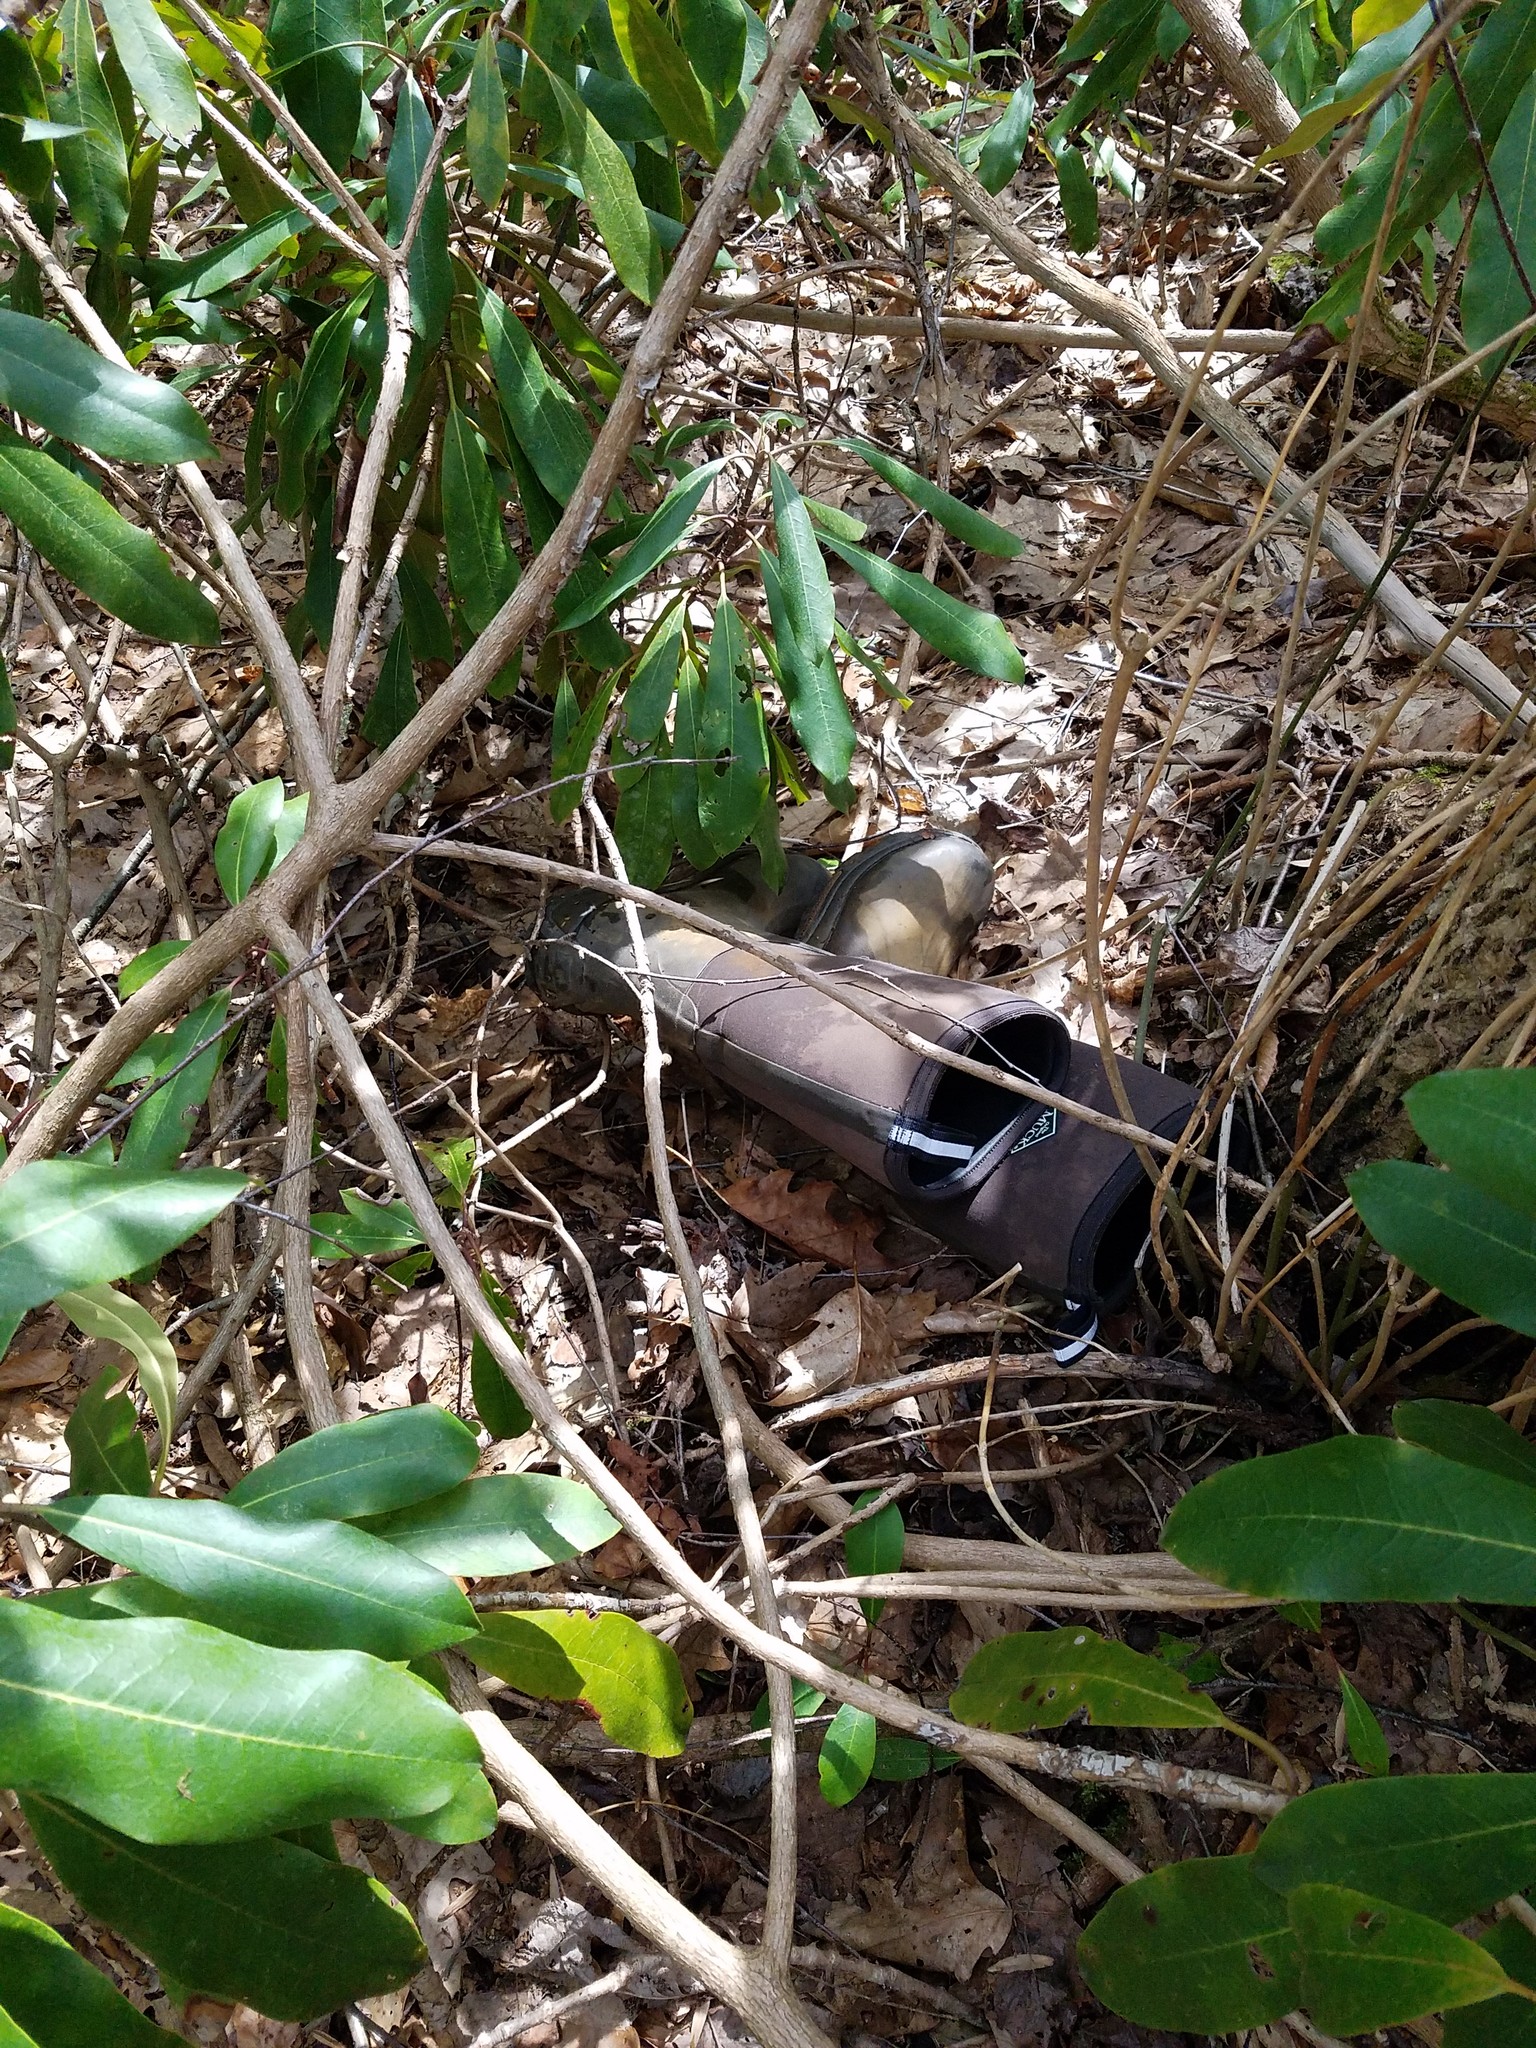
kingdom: Plantae
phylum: Tracheophyta
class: Magnoliopsida
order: Ericales
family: Ericaceae
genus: Rhododendron
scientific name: Rhododendron maximum
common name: Great rhododendron
